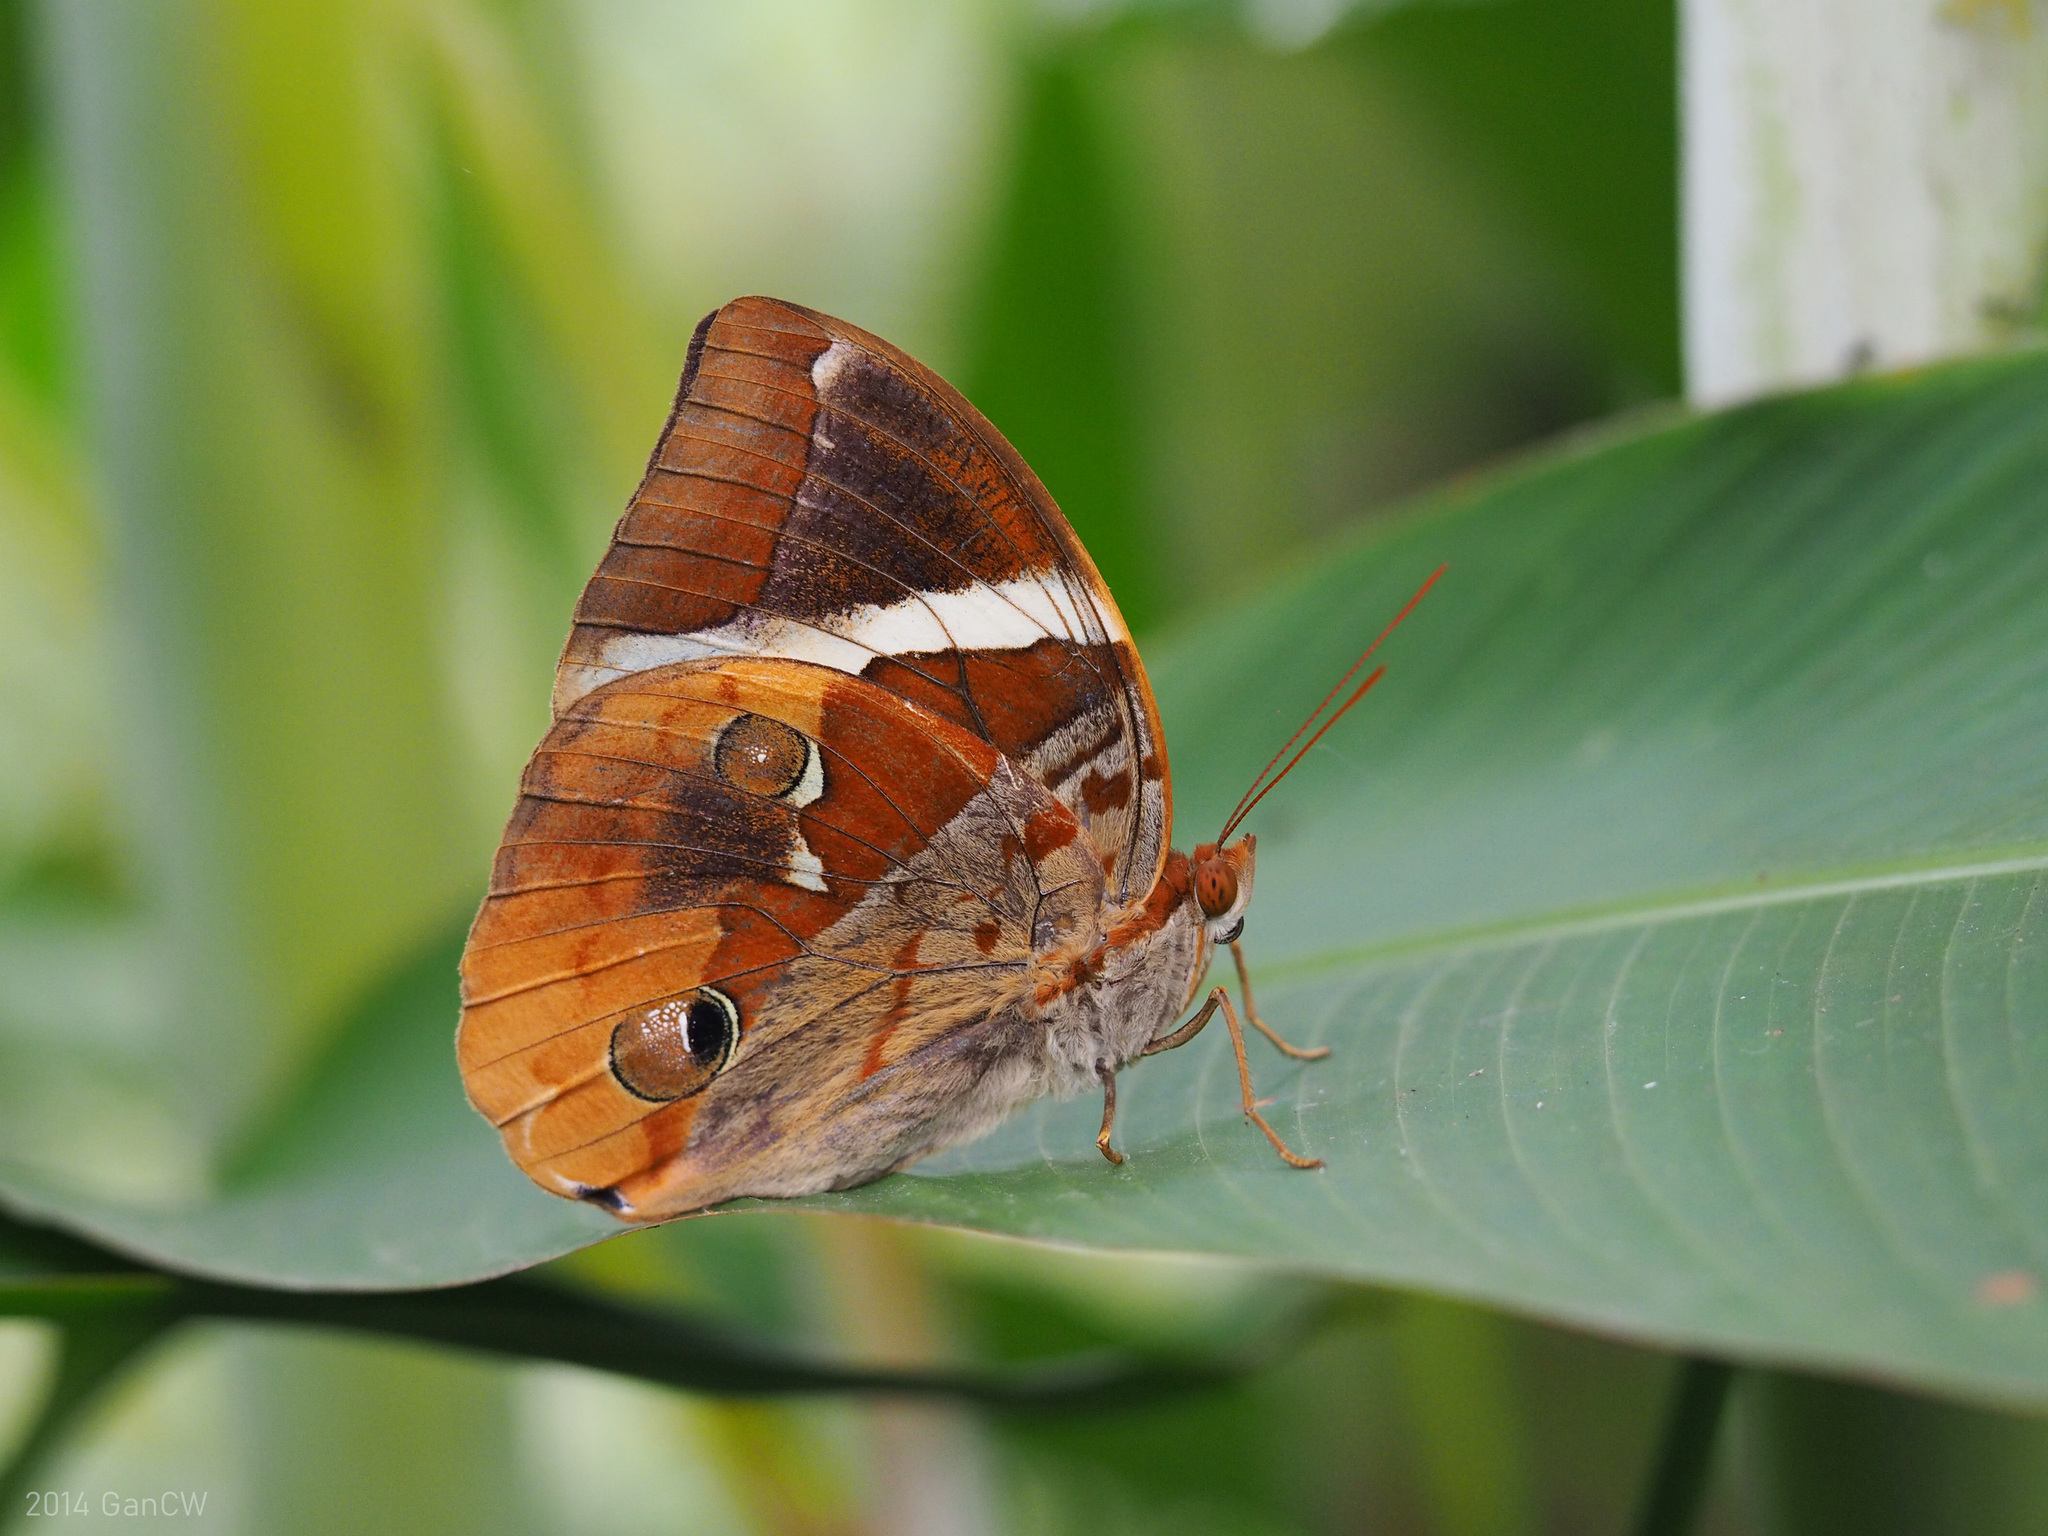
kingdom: Animalia
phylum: Arthropoda
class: Insecta
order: Lepidoptera
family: Nymphalidae
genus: Thauria
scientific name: Thauria aliris
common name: Tufted jungle king
